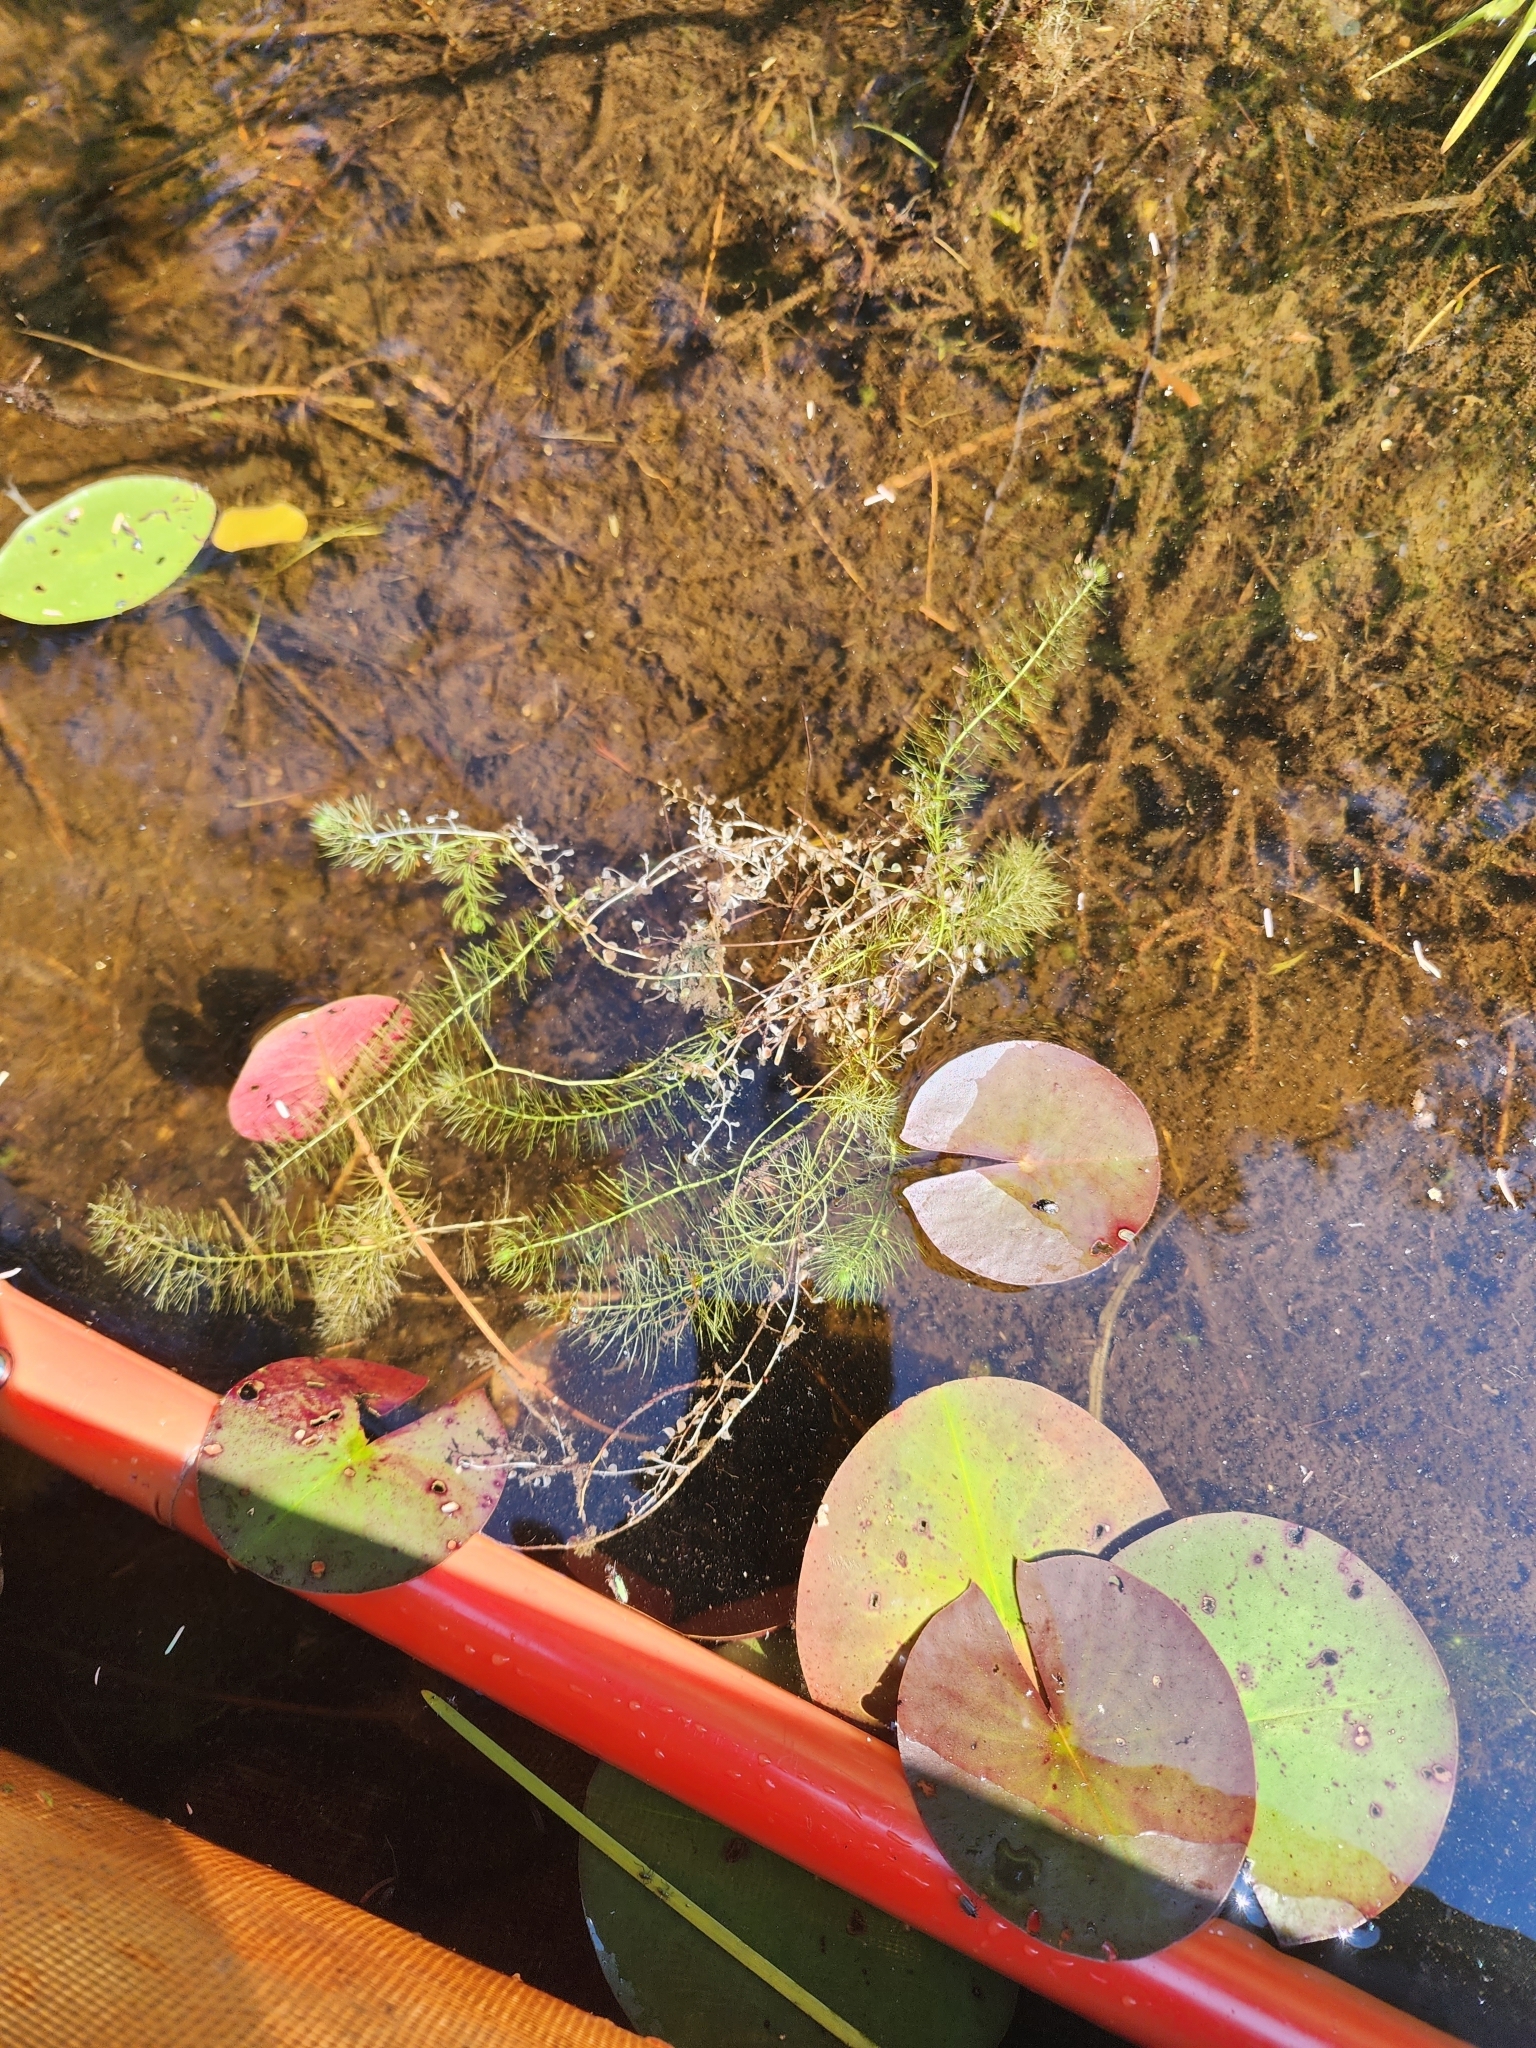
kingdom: Plantae
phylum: Tracheophyta
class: Magnoliopsida
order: Lamiales
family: Lentibulariaceae
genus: Utricularia
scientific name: Utricularia intermedia
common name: Intermediate bladderwort
